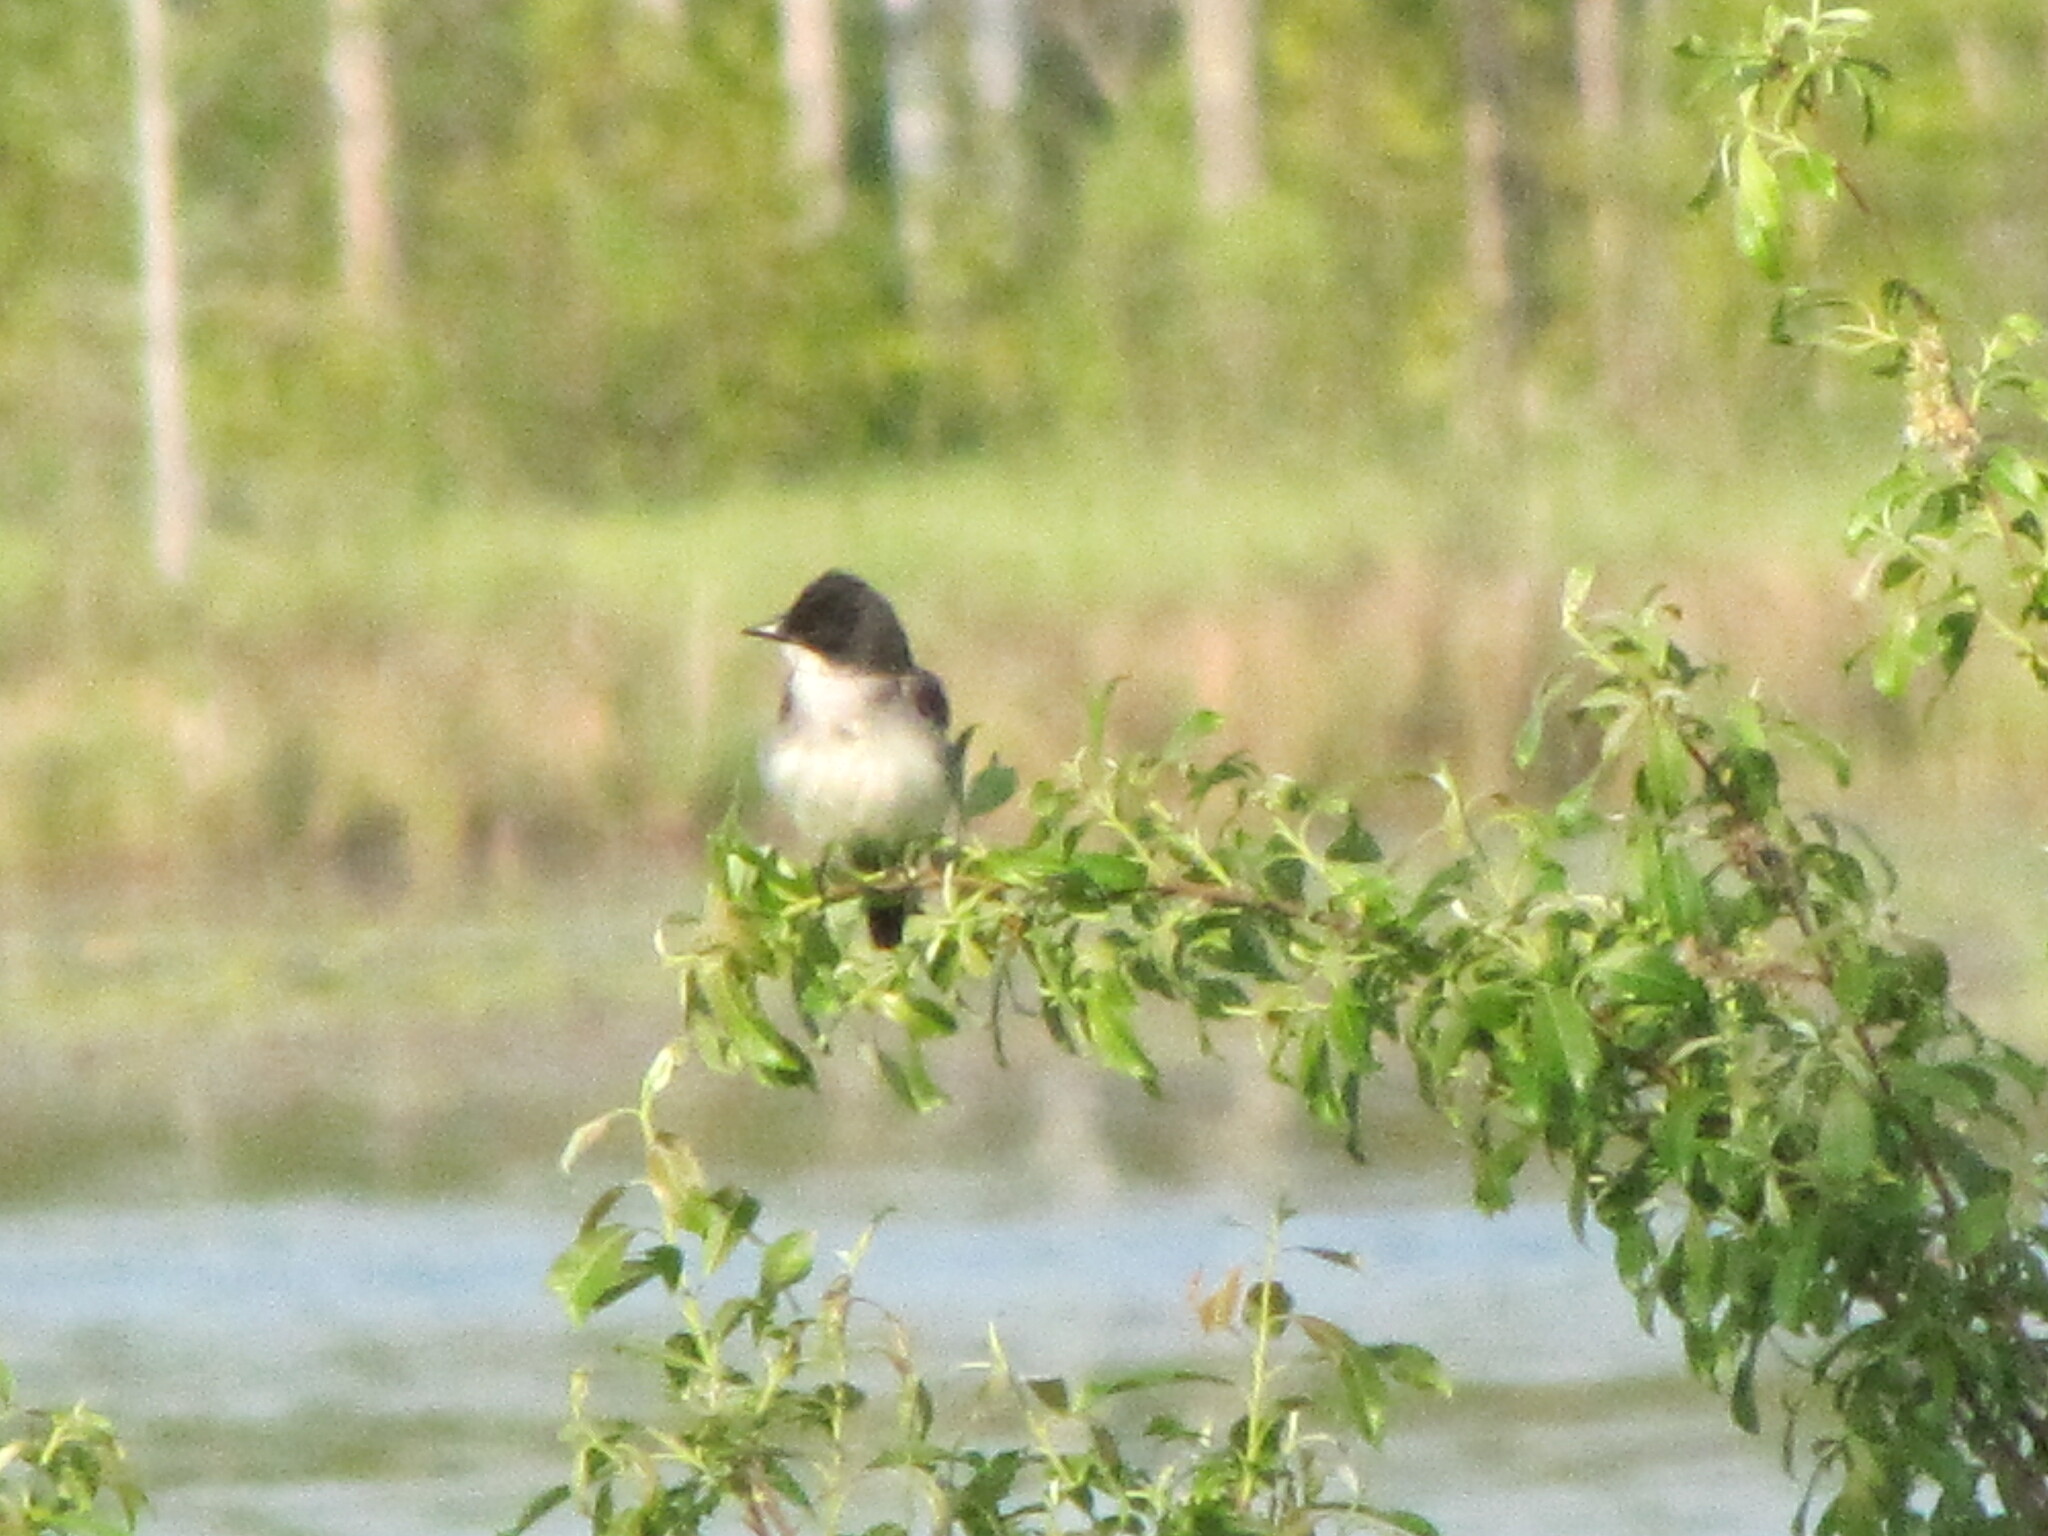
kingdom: Animalia
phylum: Chordata
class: Aves
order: Passeriformes
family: Tyrannidae
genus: Tyrannus
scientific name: Tyrannus tyrannus
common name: Eastern kingbird
